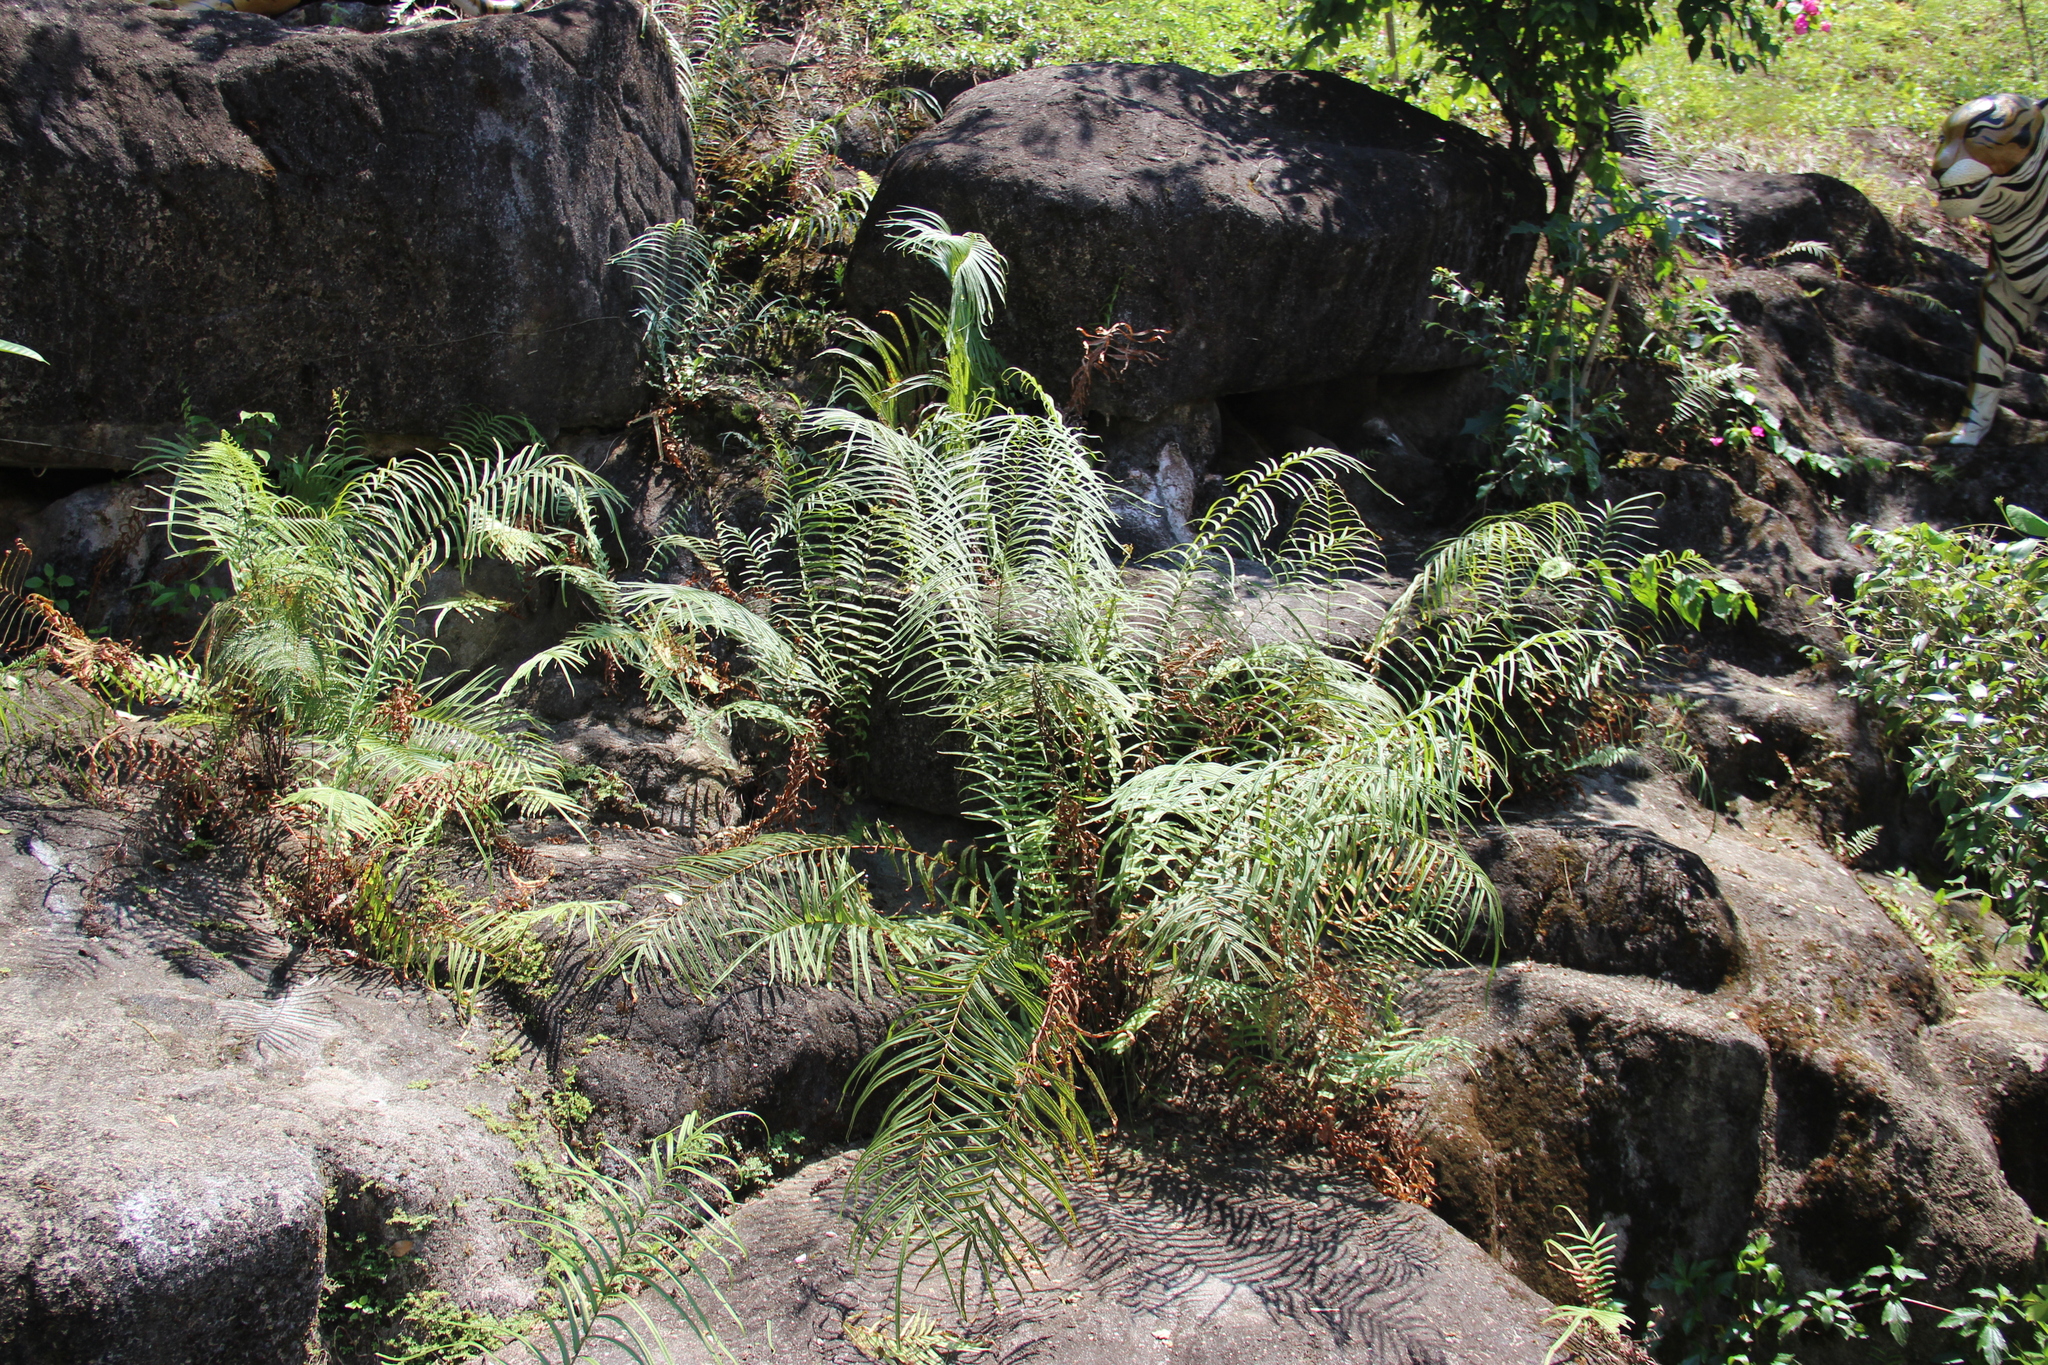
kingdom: Plantae
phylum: Tracheophyta
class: Polypodiopsida
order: Polypodiales
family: Pteridaceae
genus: Pteris
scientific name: Pteris vittata
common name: Ladder brake
